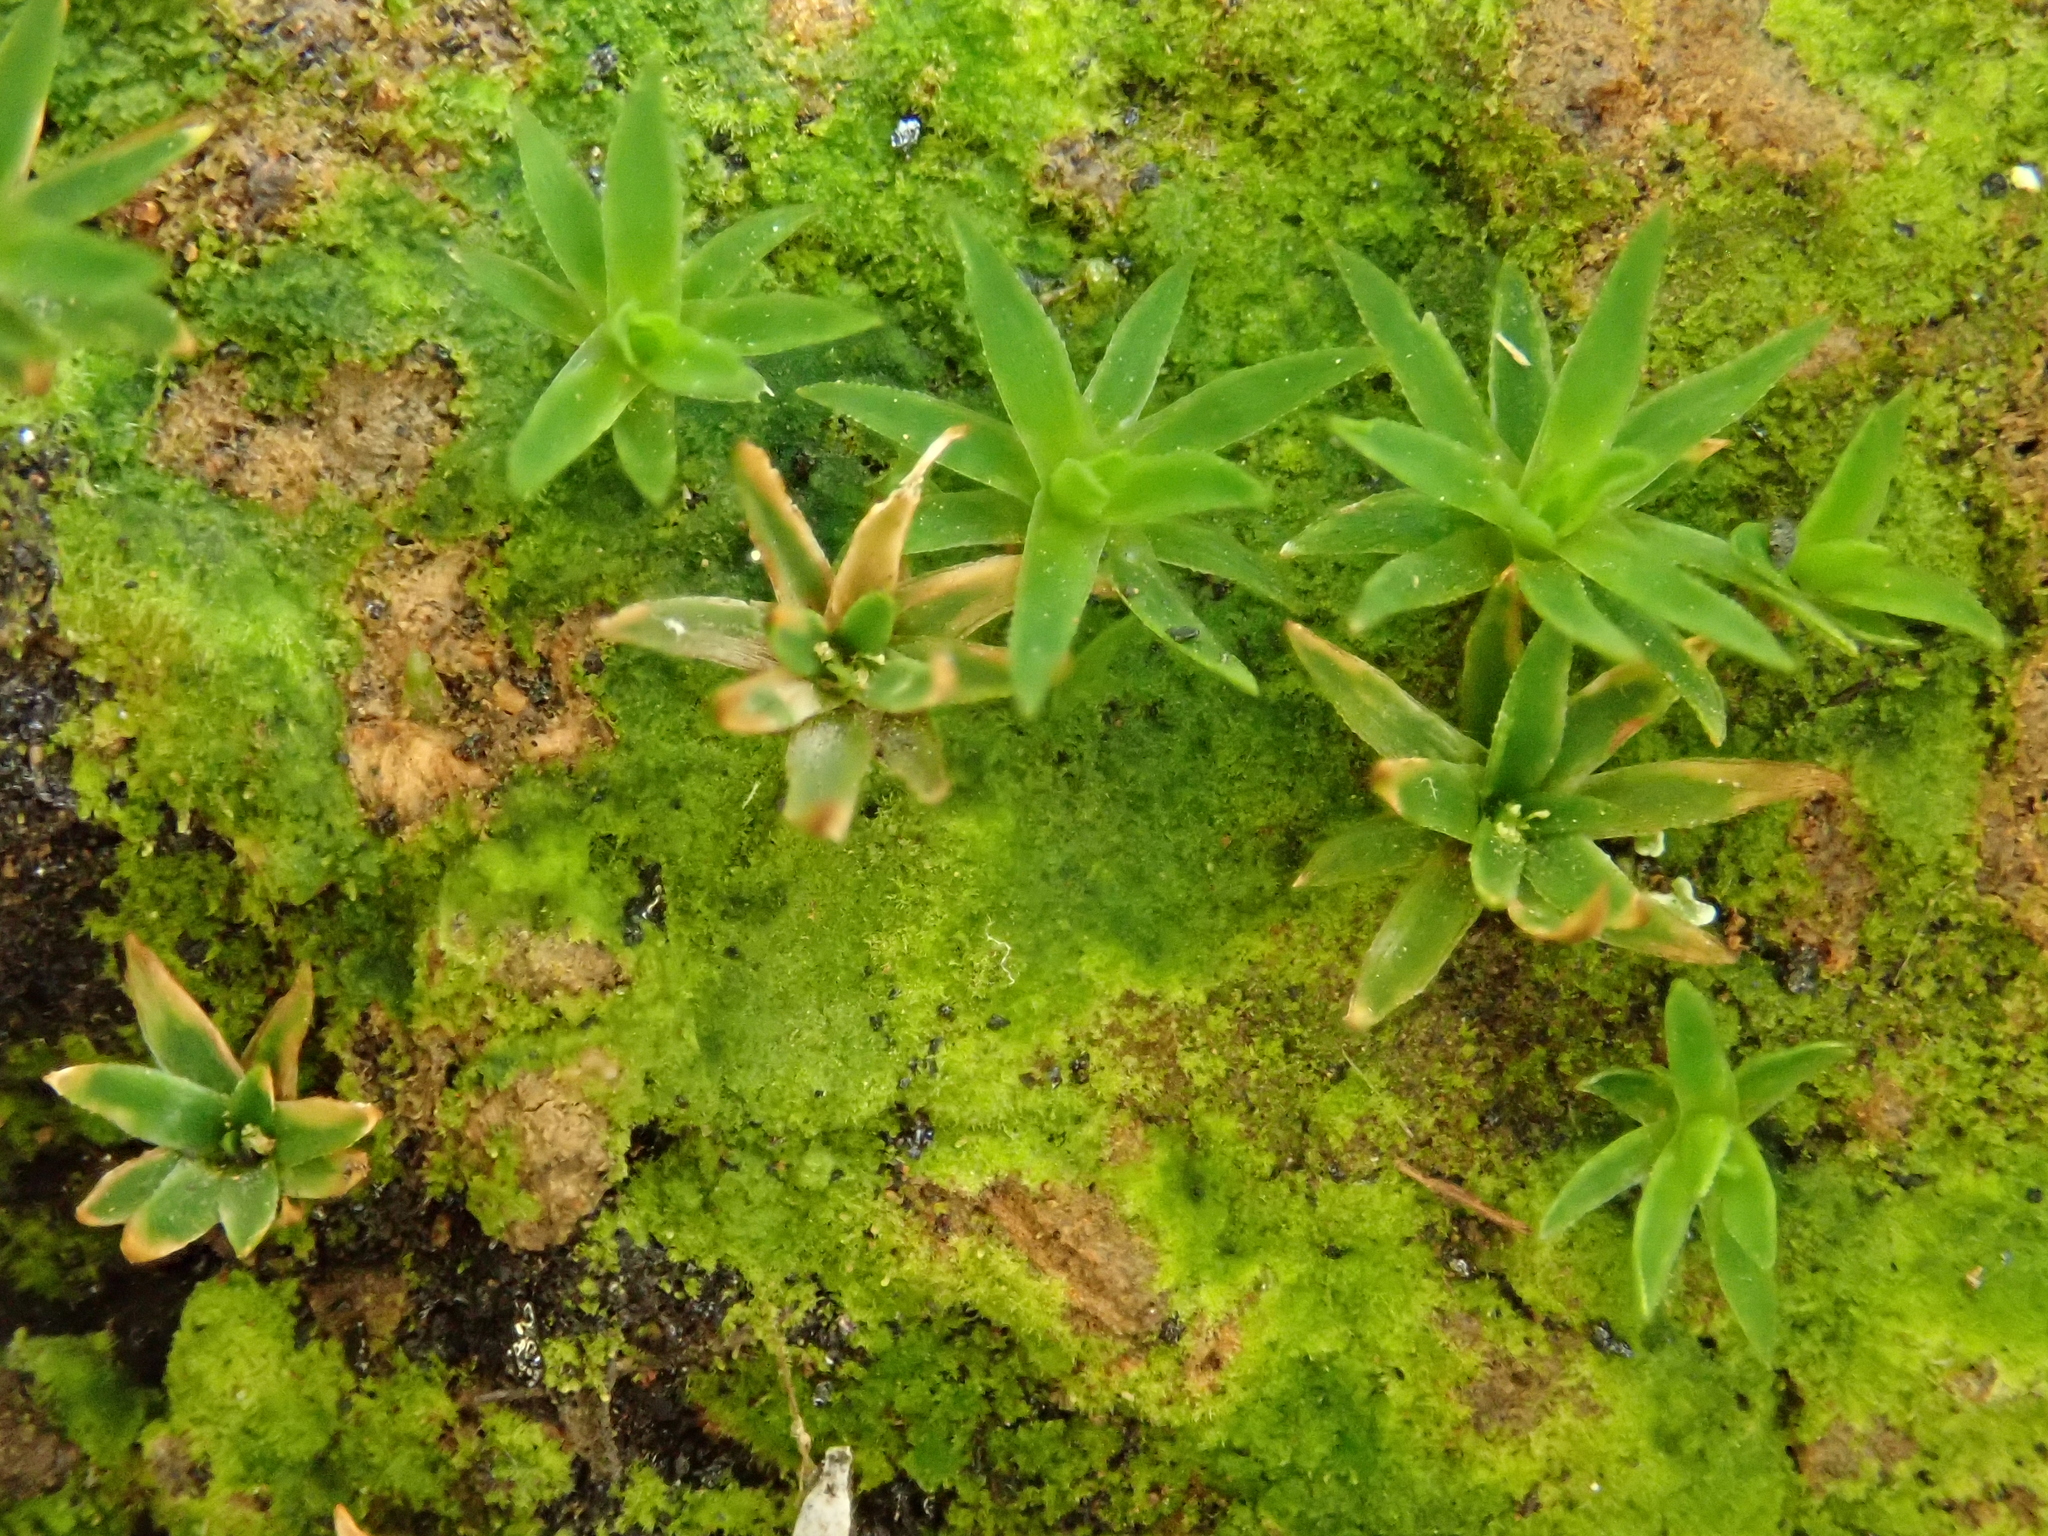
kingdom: Plantae
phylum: Bryophyta
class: Polytrichopsida
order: Polytrichales
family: Polytrichaceae
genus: Pogonatum
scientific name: Pogonatum aloides
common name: Aloe haircap
